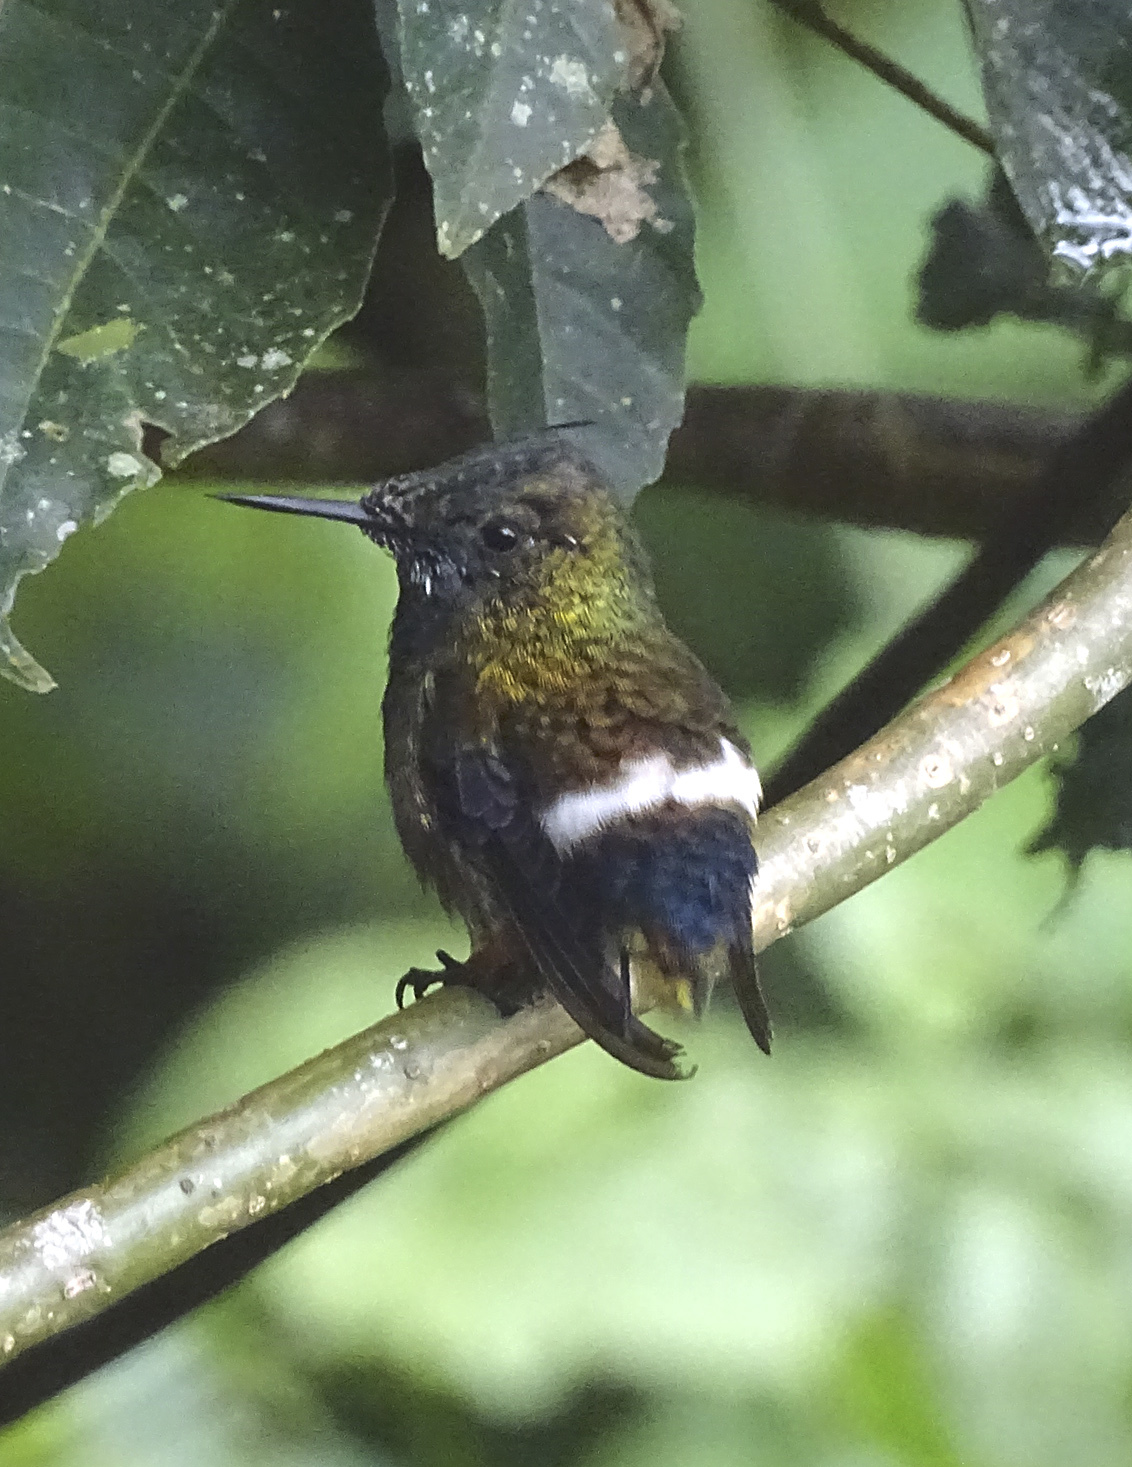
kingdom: Animalia
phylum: Chordata
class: Aves
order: Apodiformes
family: Trochilidae
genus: Discosura
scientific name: Discosura popelairii
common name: Wire-crested thorntail
